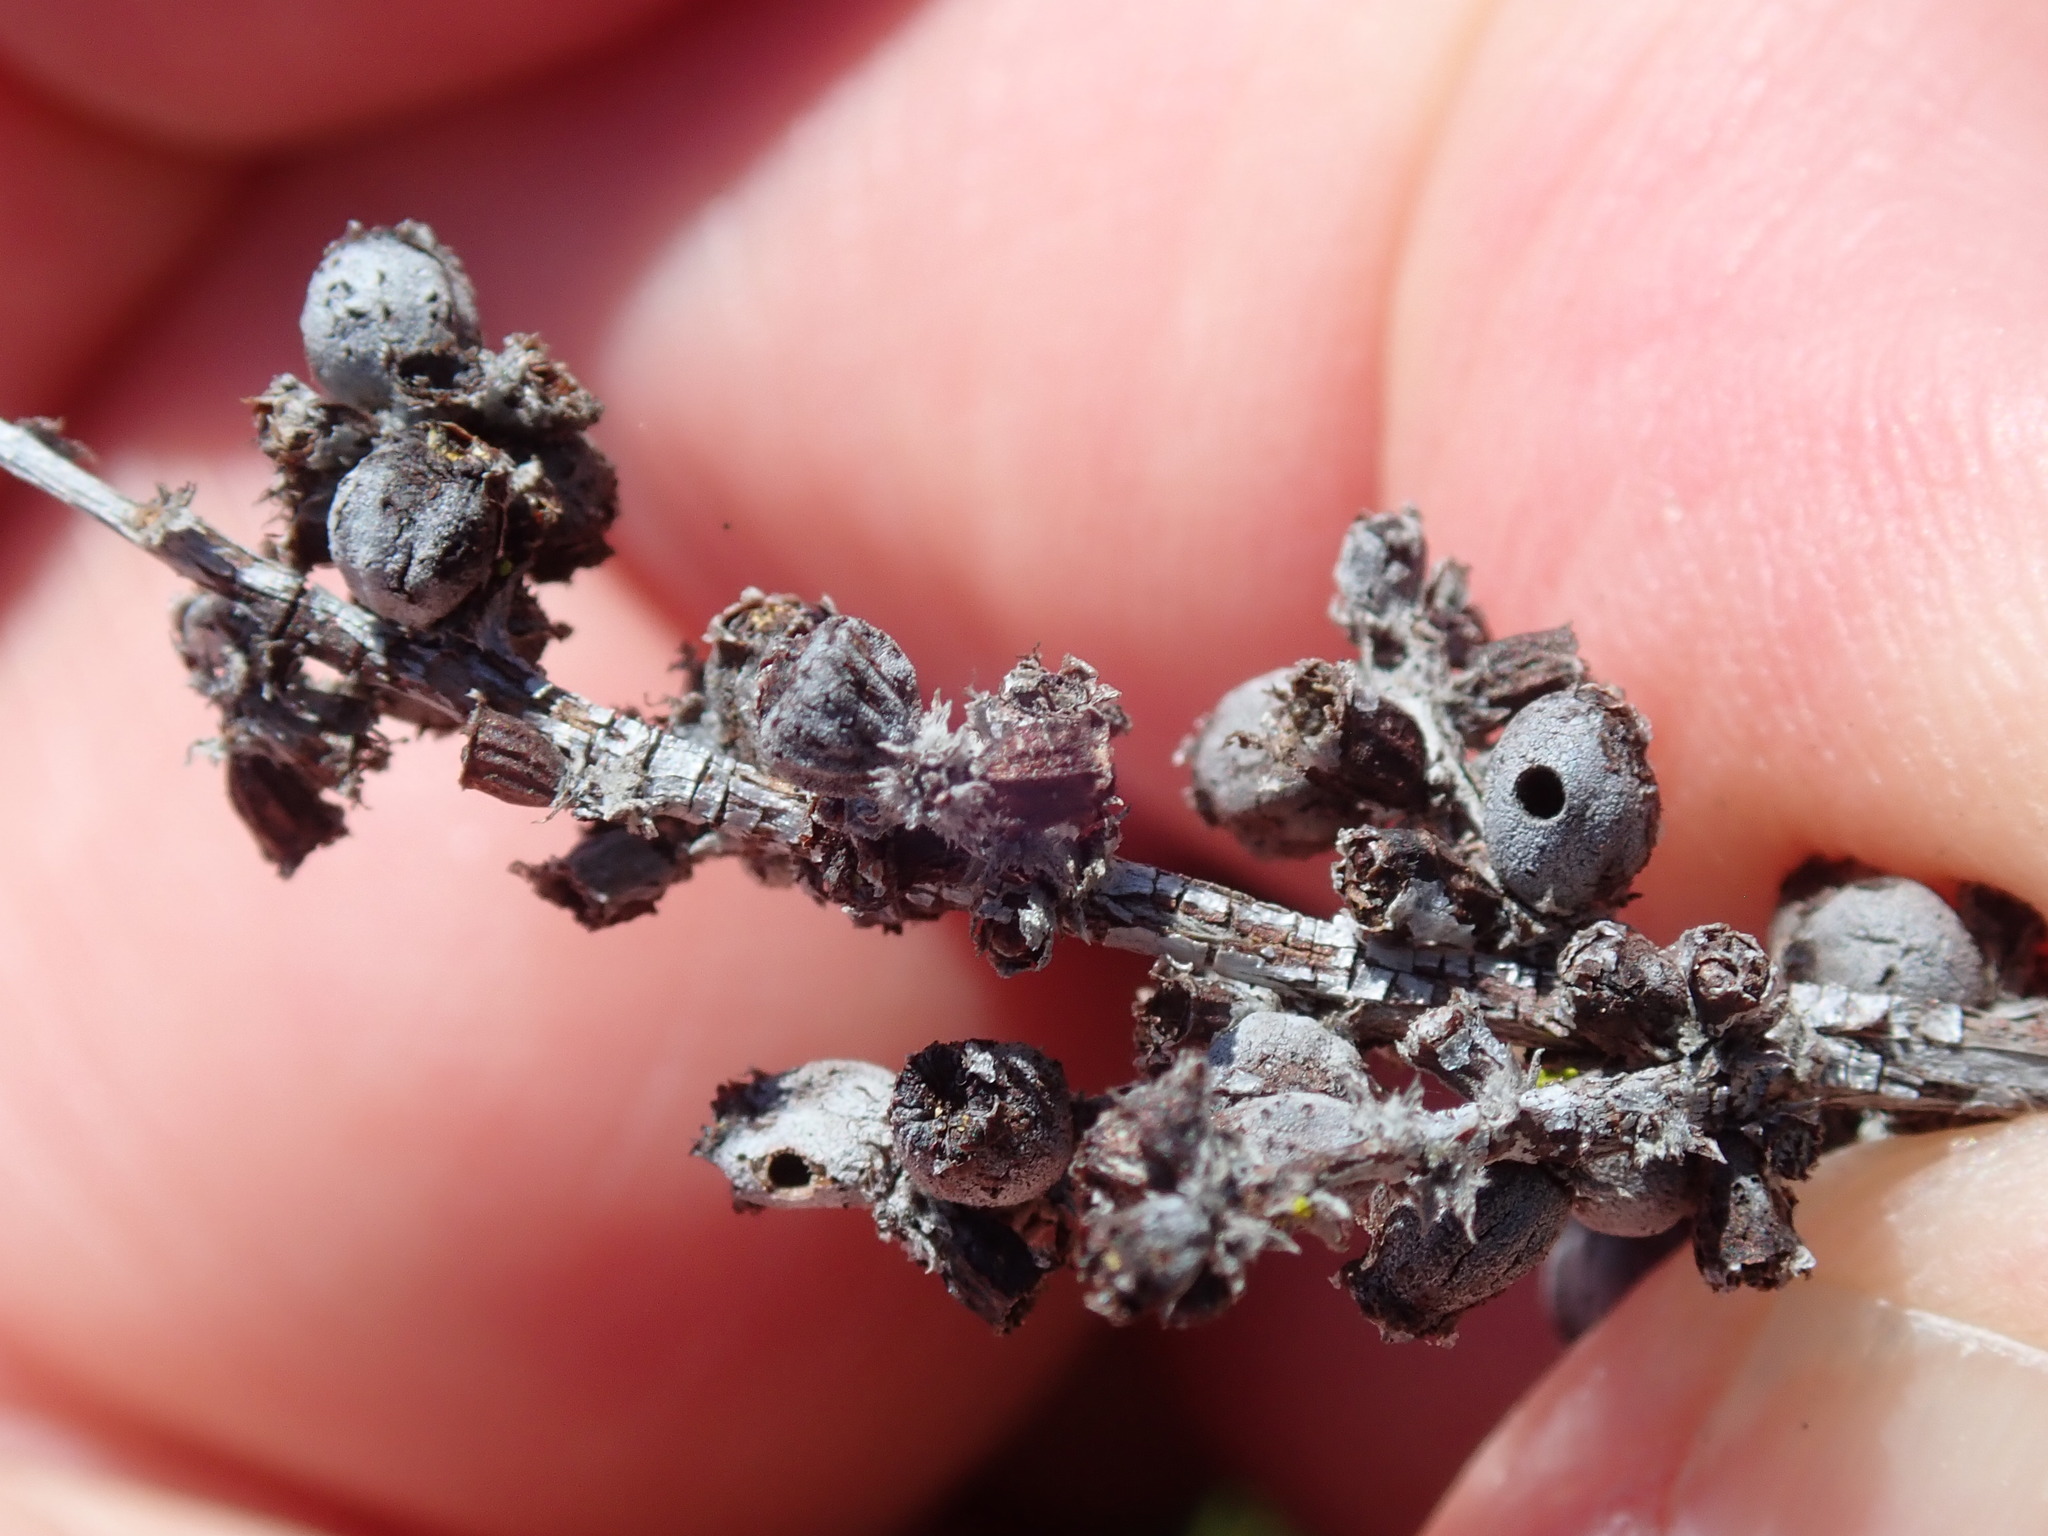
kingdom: Animalia
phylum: Arthropoda
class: Insecta
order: Diptera
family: Cecidomyiidae
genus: Asphondylia
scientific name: Asphondylia adenostoma
